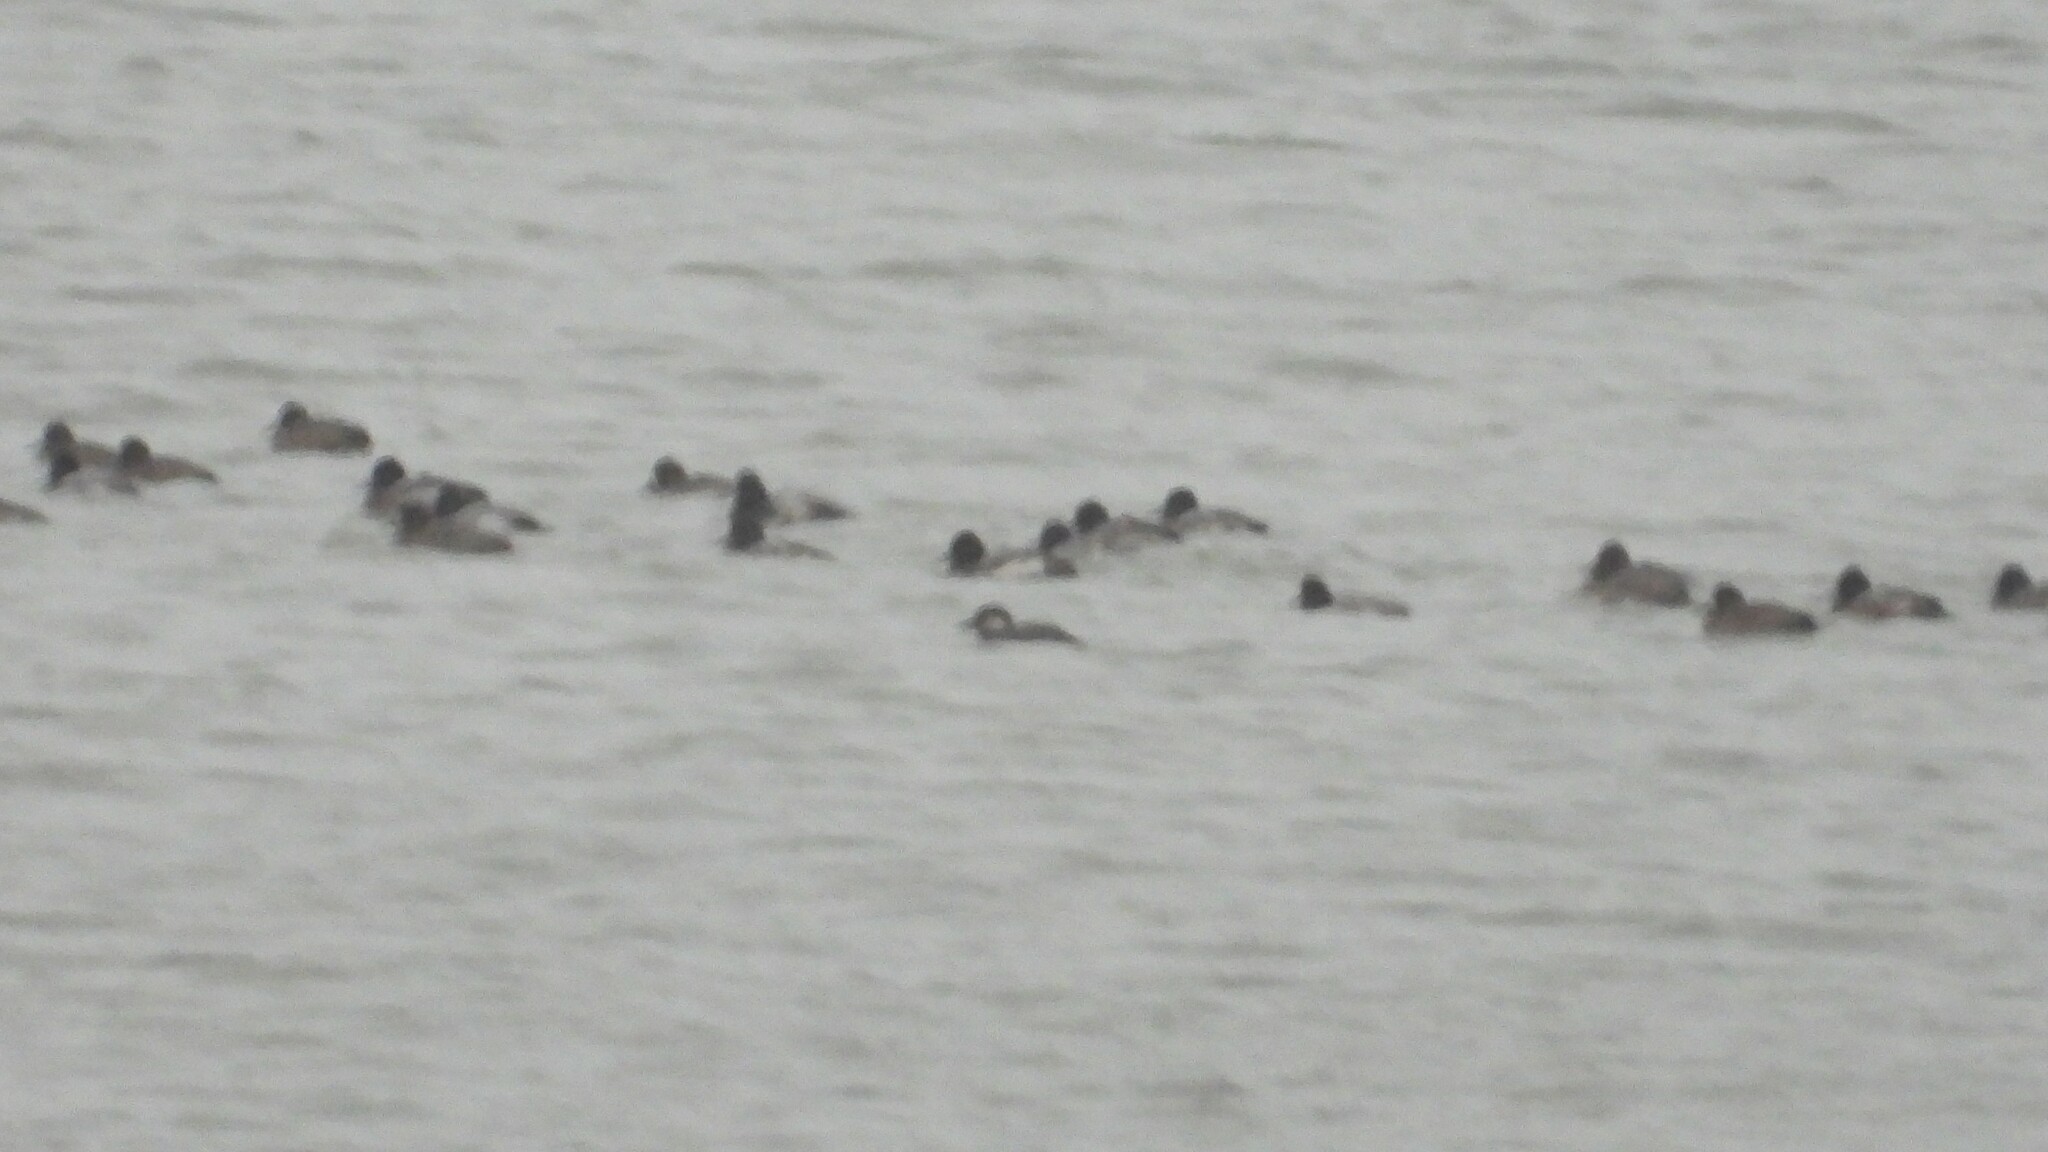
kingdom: Animalia
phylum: Chordata
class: Aves
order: Anseriformes
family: Anatidae
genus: Melanitta
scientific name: Melanitta americana
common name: Black scoter
